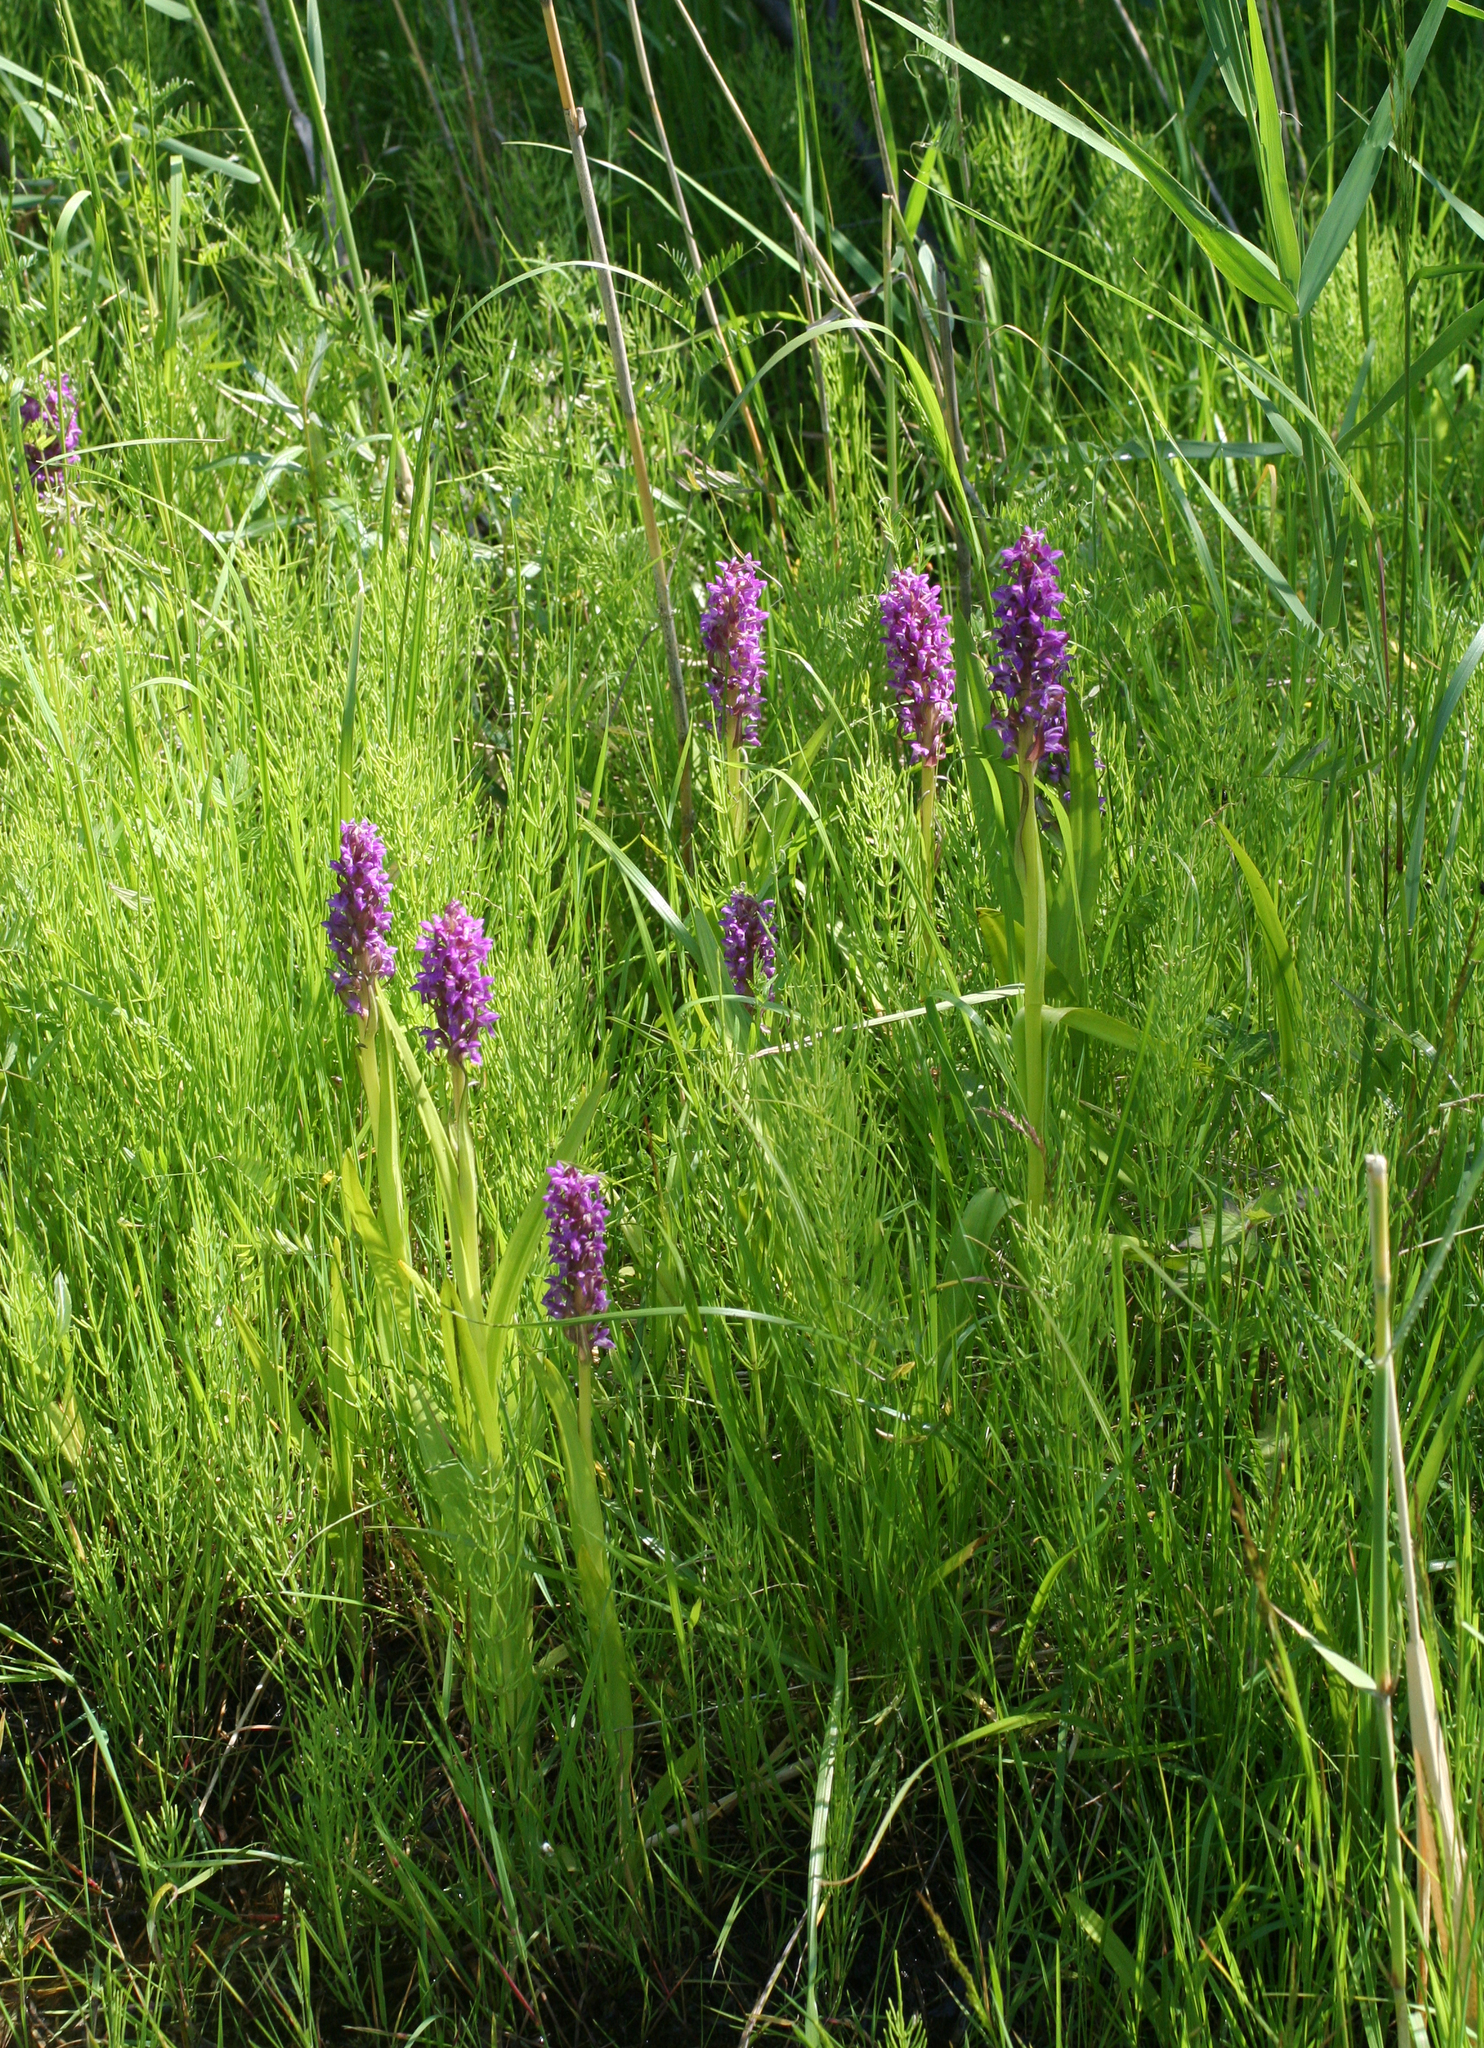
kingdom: Plantae
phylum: Tracheophyta
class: Liliopsida
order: Asparagales
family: Orchidaceae
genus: Dactylorhiza
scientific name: Dactylorhiza incarnata
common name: Early marsh-orchid
